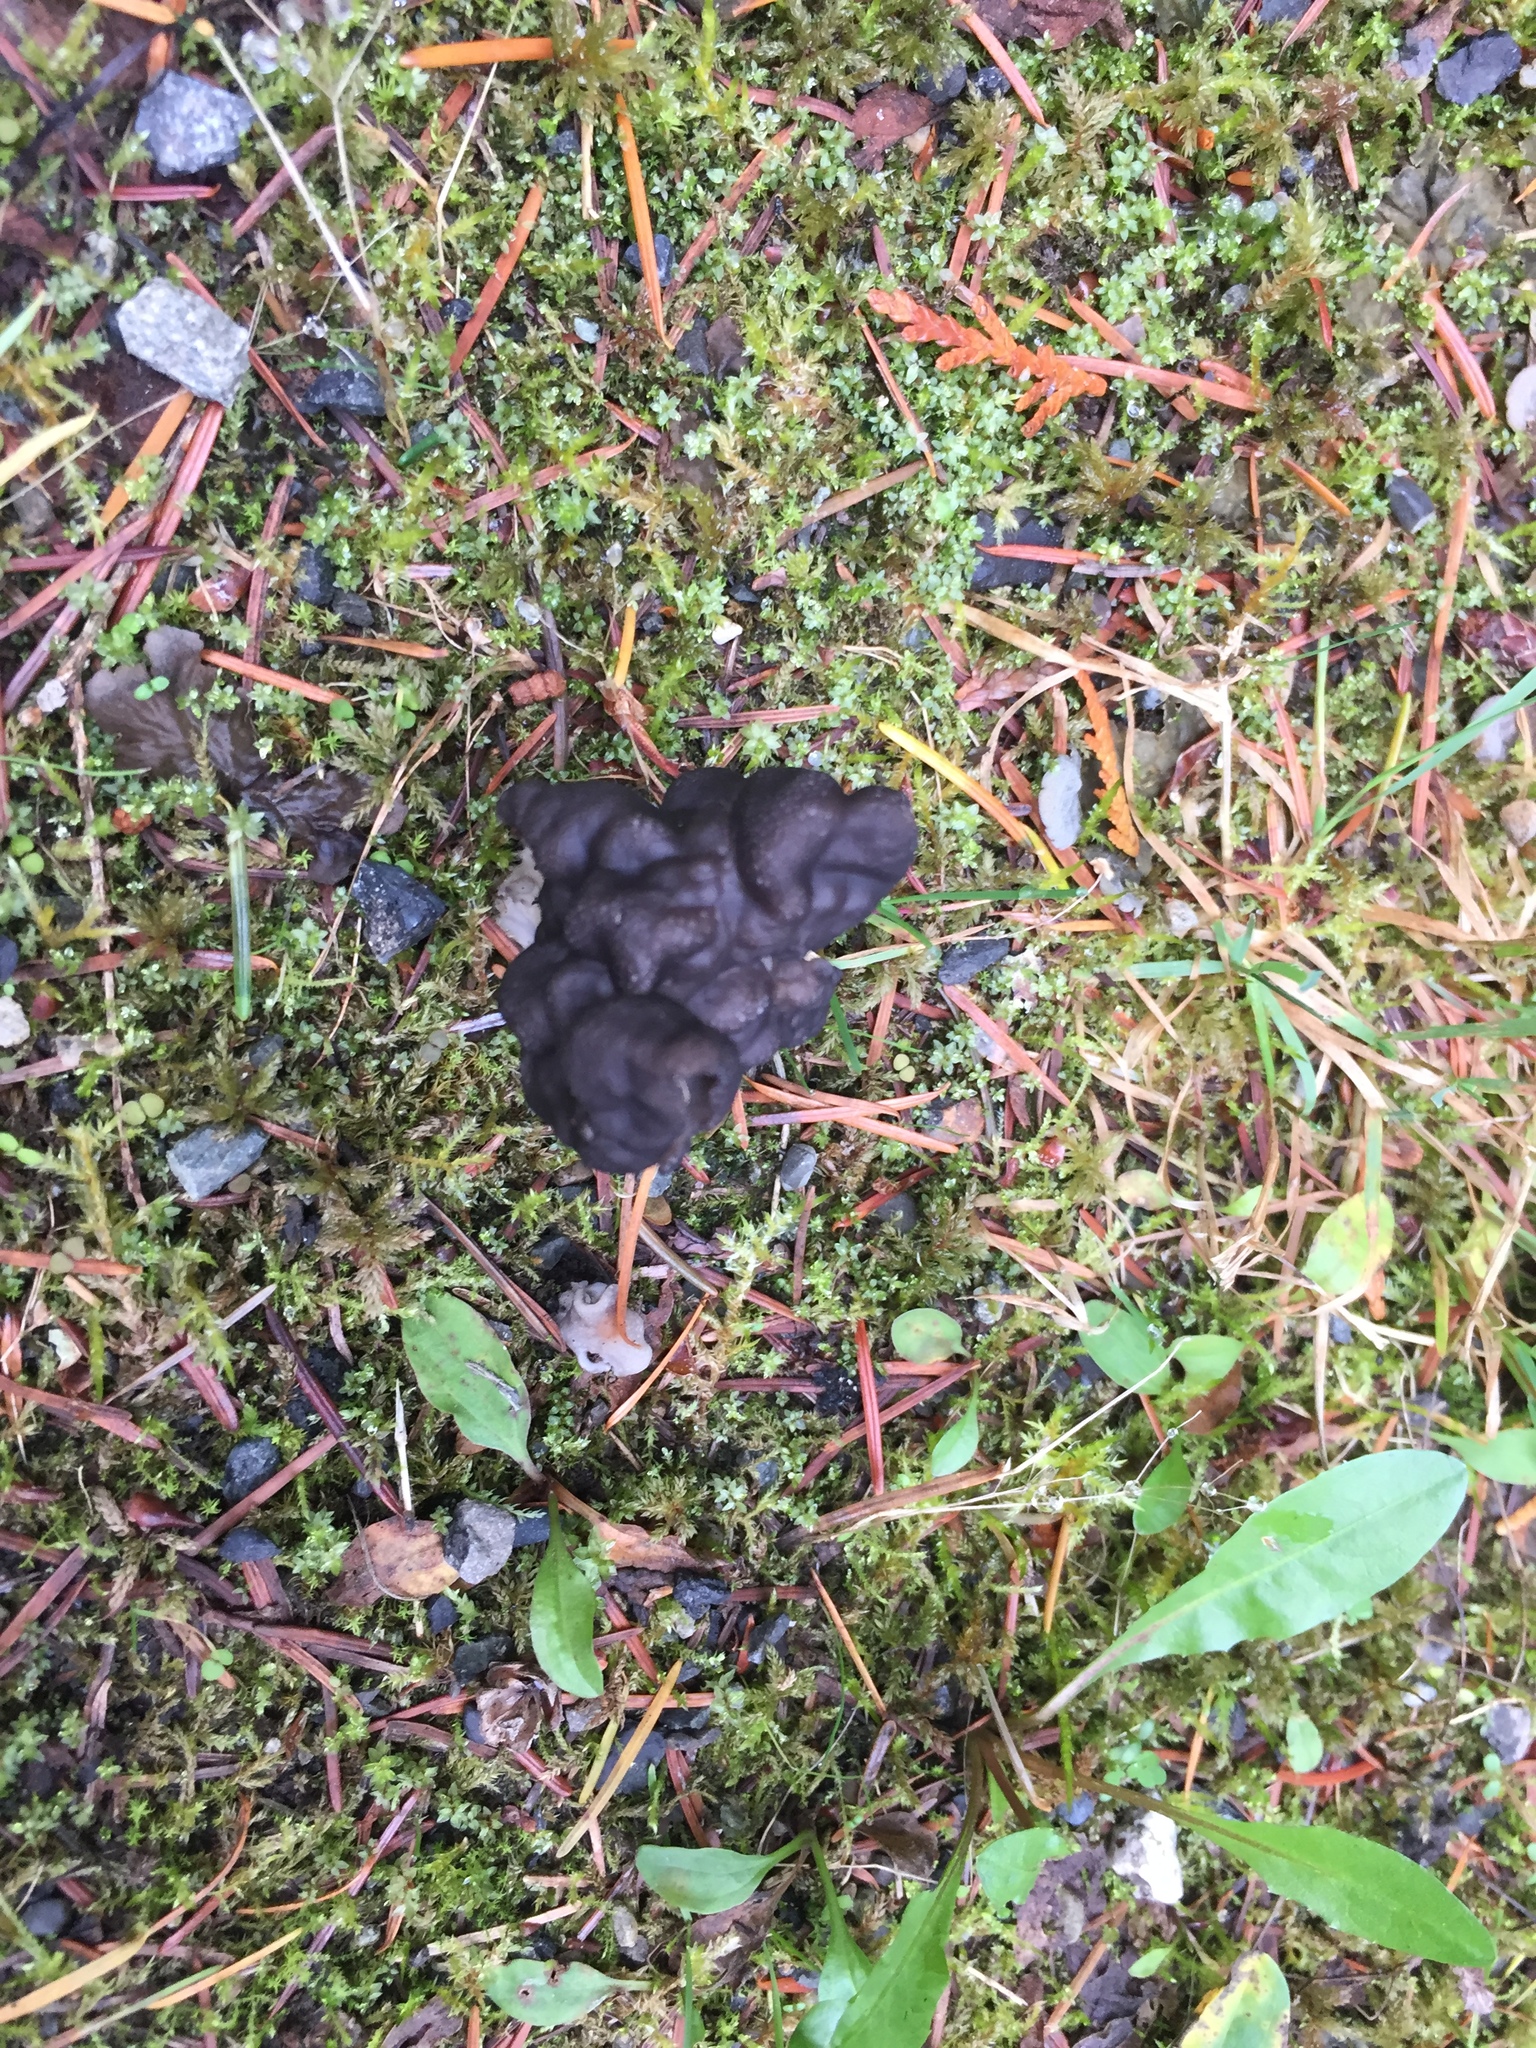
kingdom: Fungi
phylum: Ascomycota
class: Pezizomycetes
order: Pezizales
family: Helvellaceae
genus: Helvella
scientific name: Helvella vespertina
